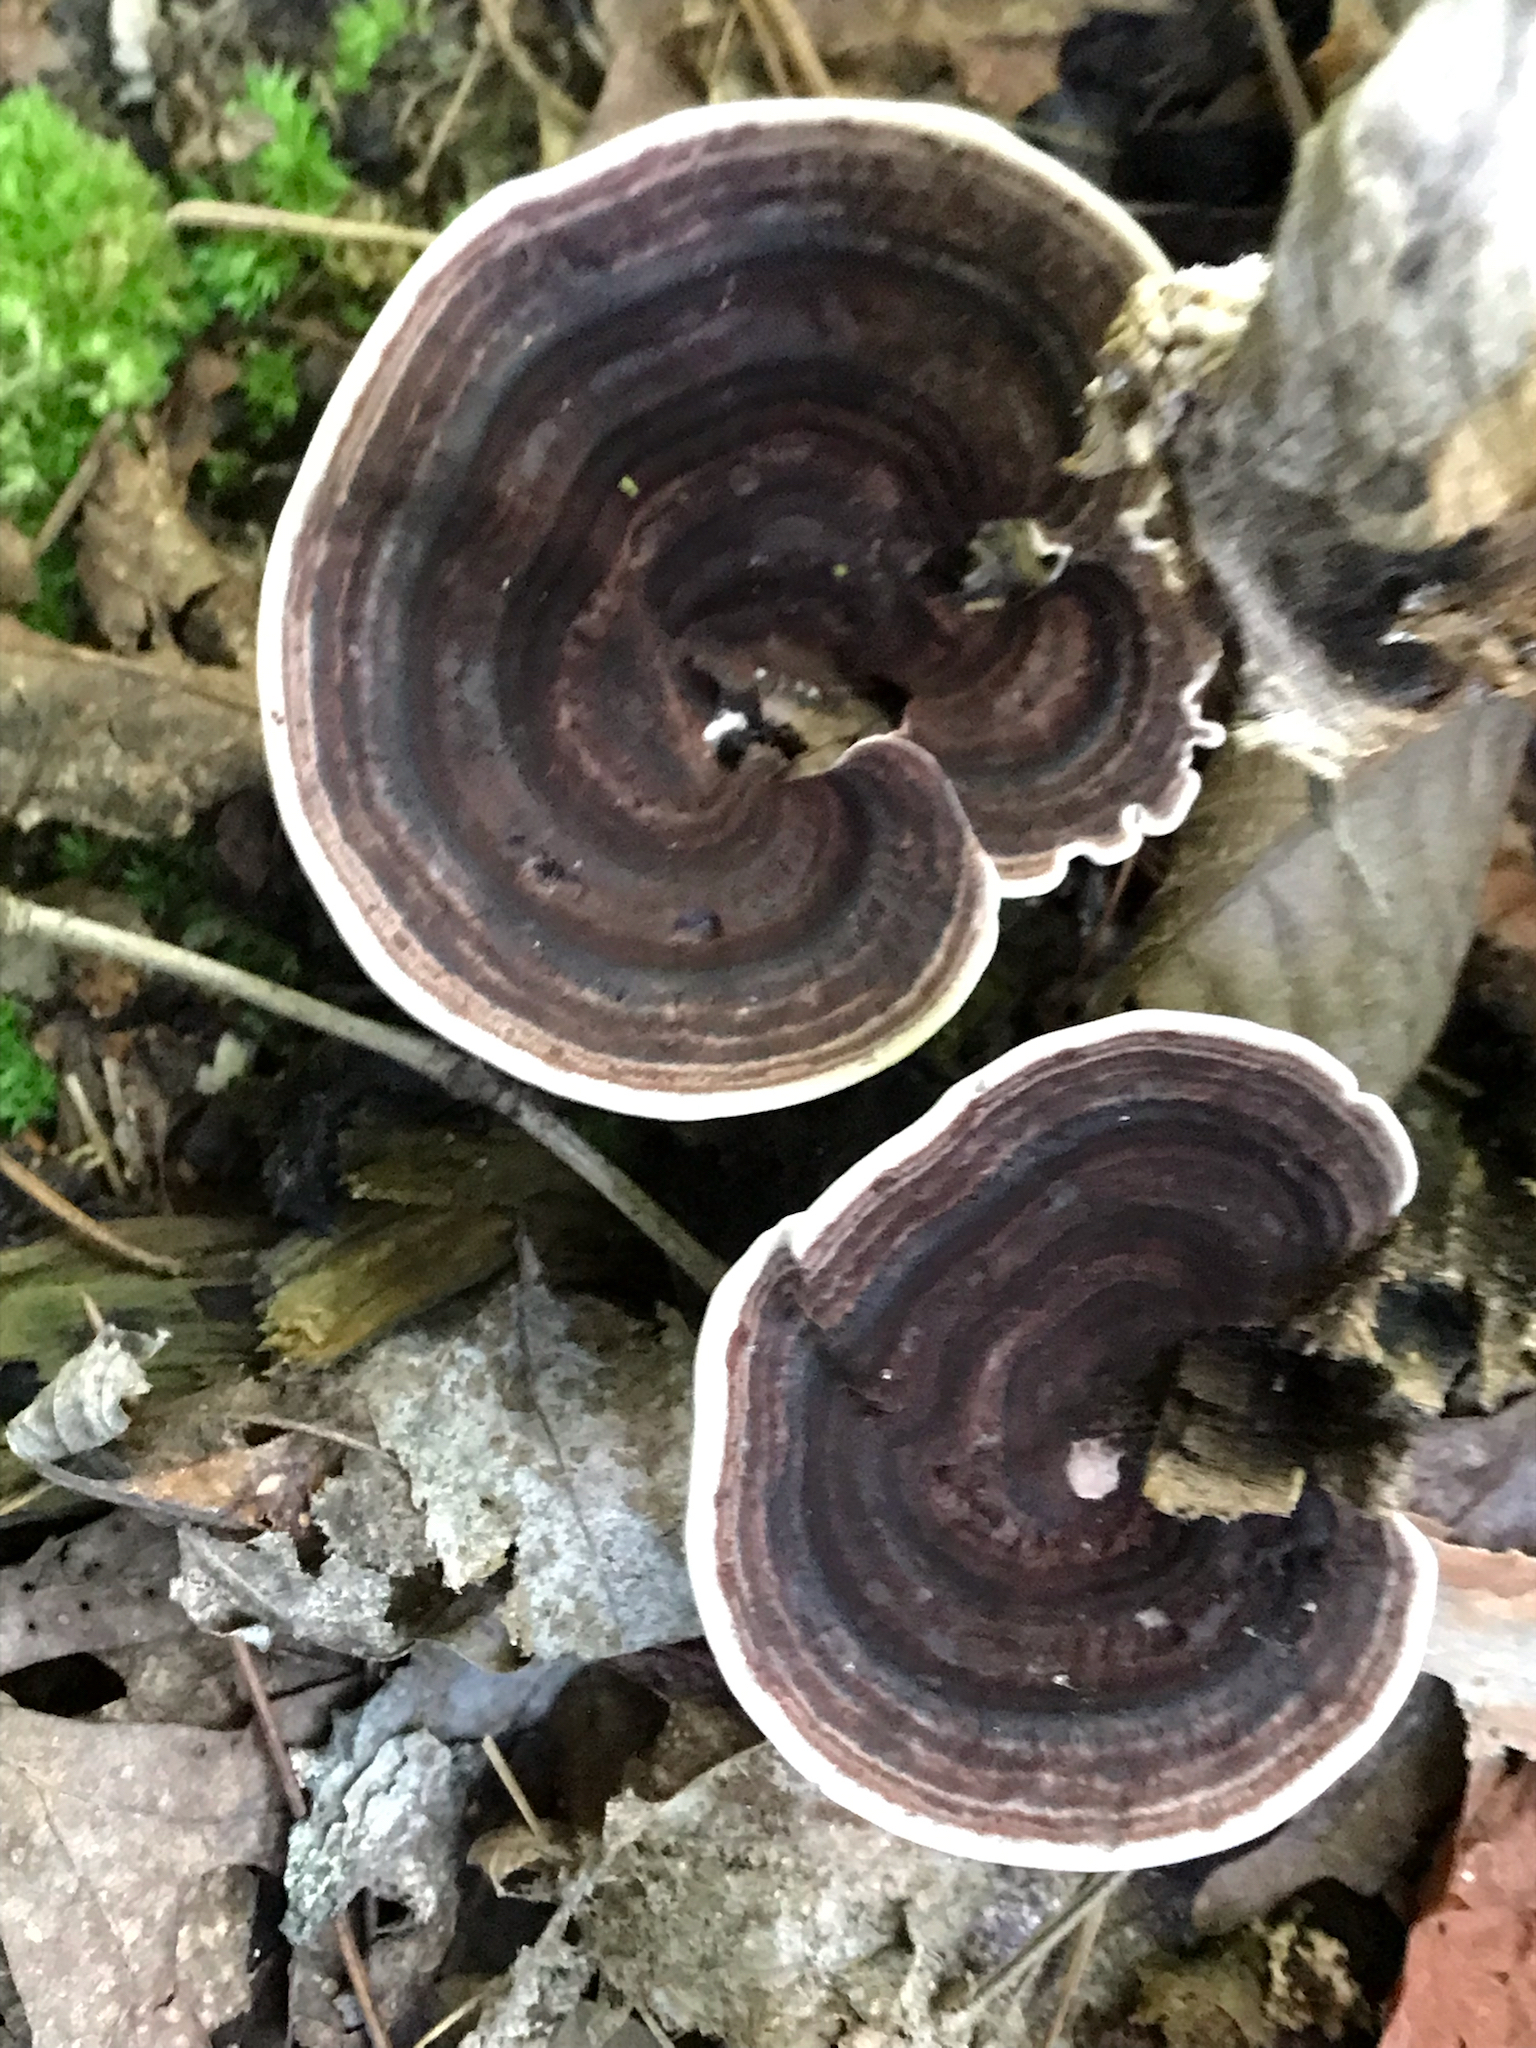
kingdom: Fungi
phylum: Basidiomycota
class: Agaricomycetes
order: Polyporales
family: Steccherinaceae
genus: Nigroporus
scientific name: Nigroporus vinosus
